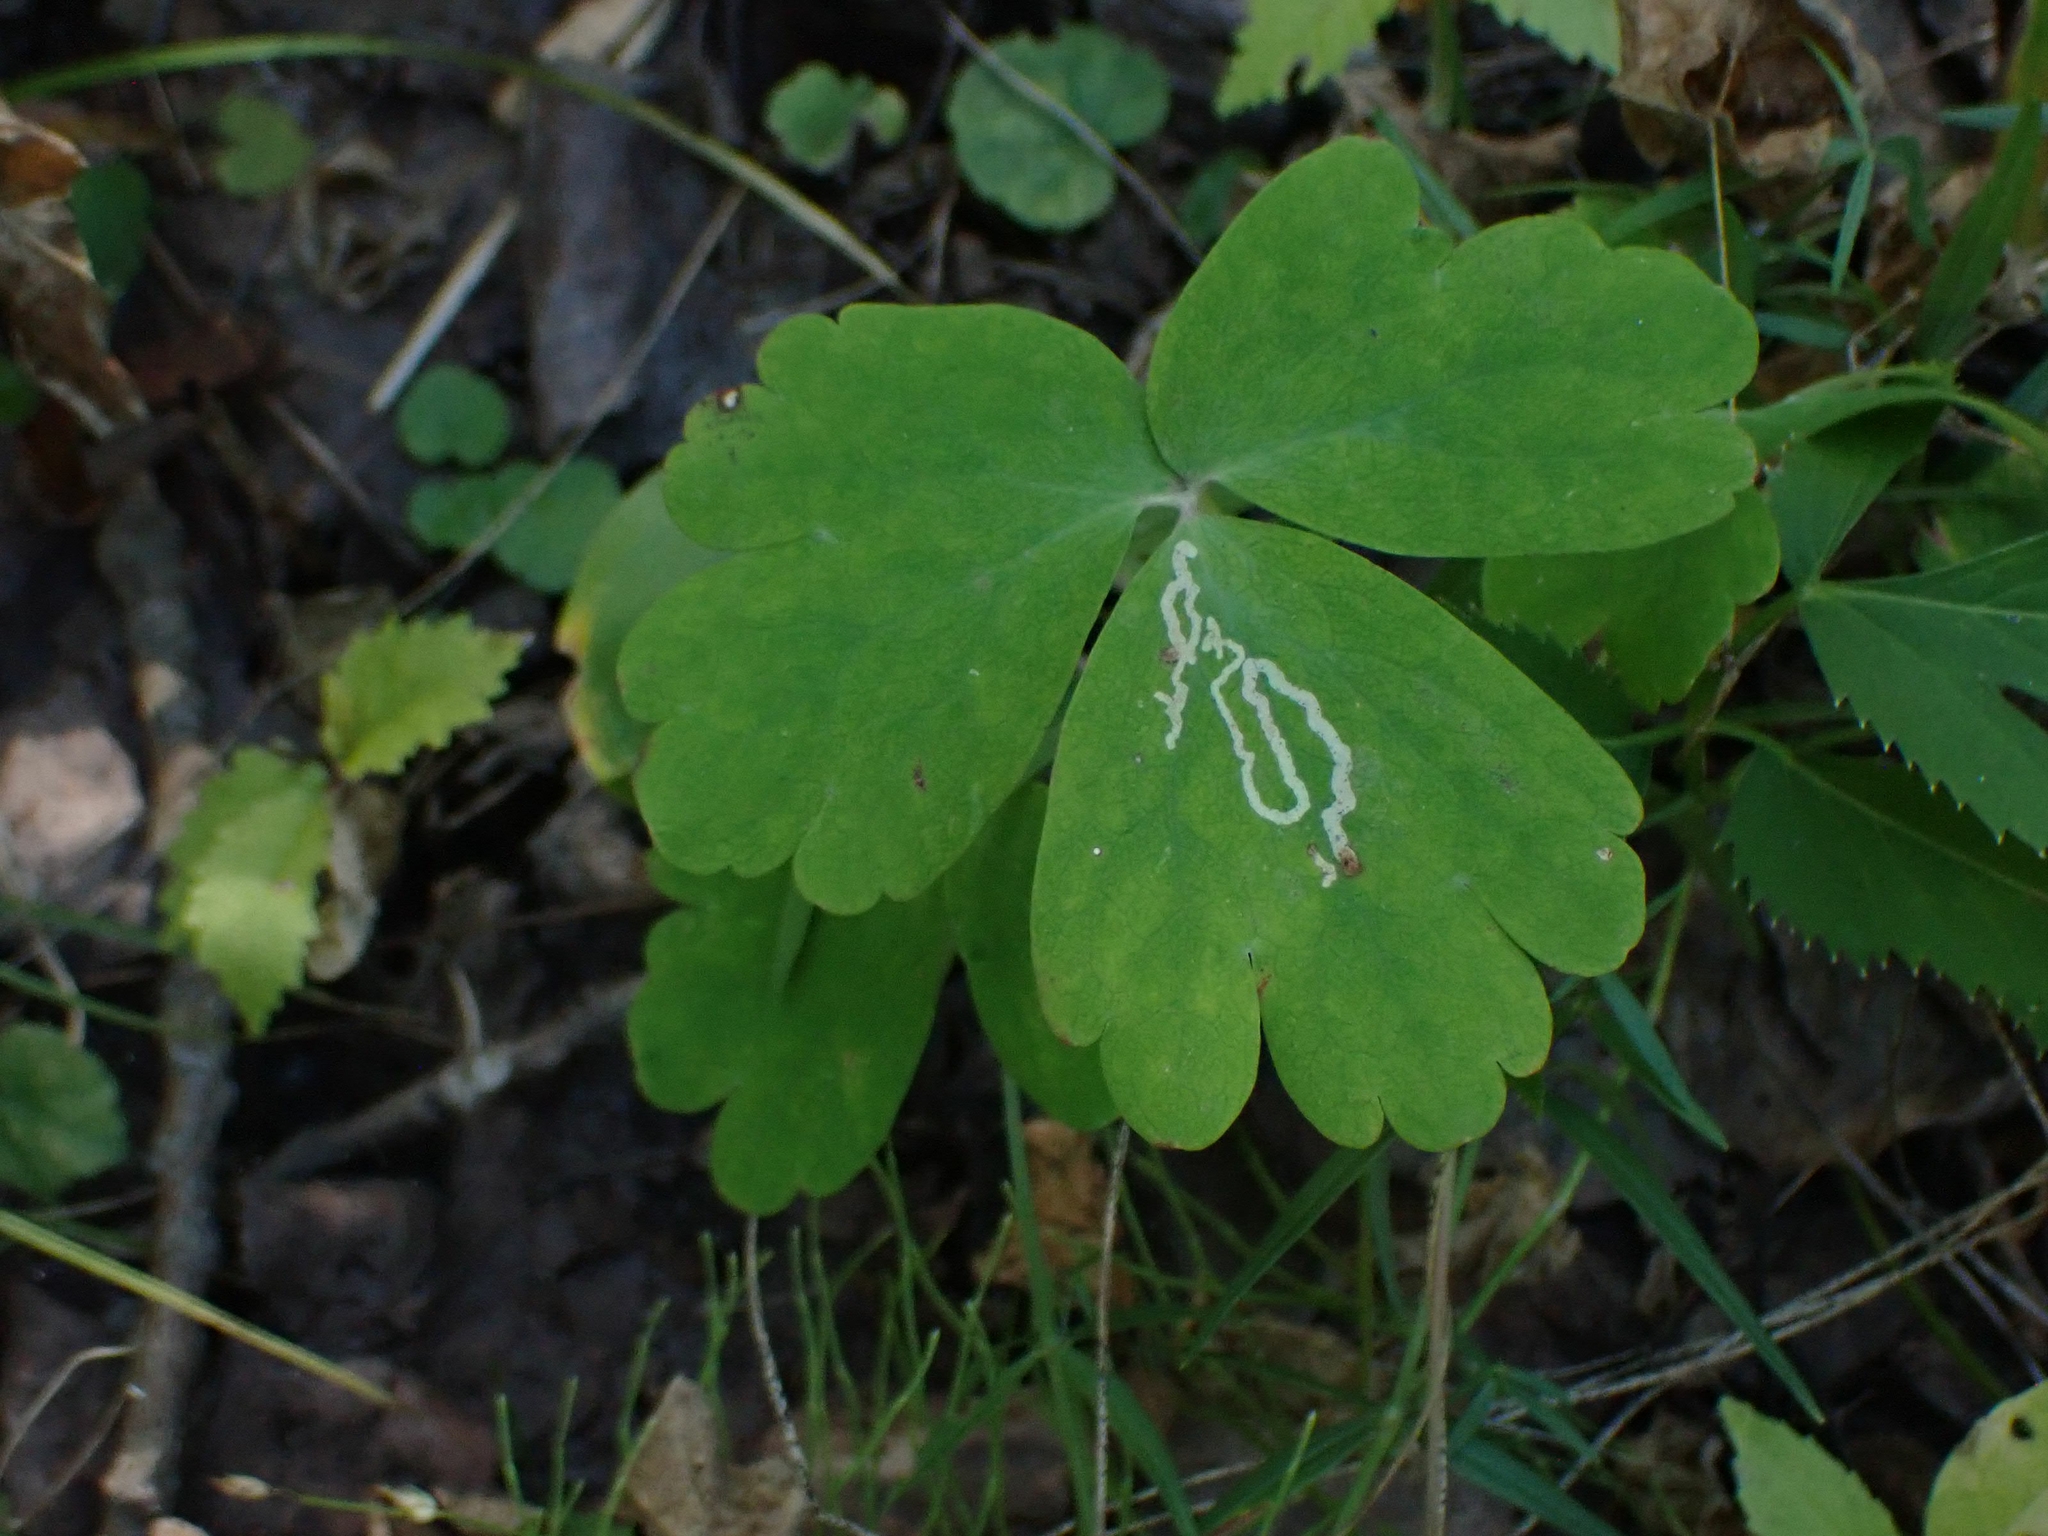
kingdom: Plantae
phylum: Tracheophyta
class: Magnoliopsida
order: Ranunculales
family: Ranunculaceae
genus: Aquilegia
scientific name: Aquilegia canadensis
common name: American columbine
